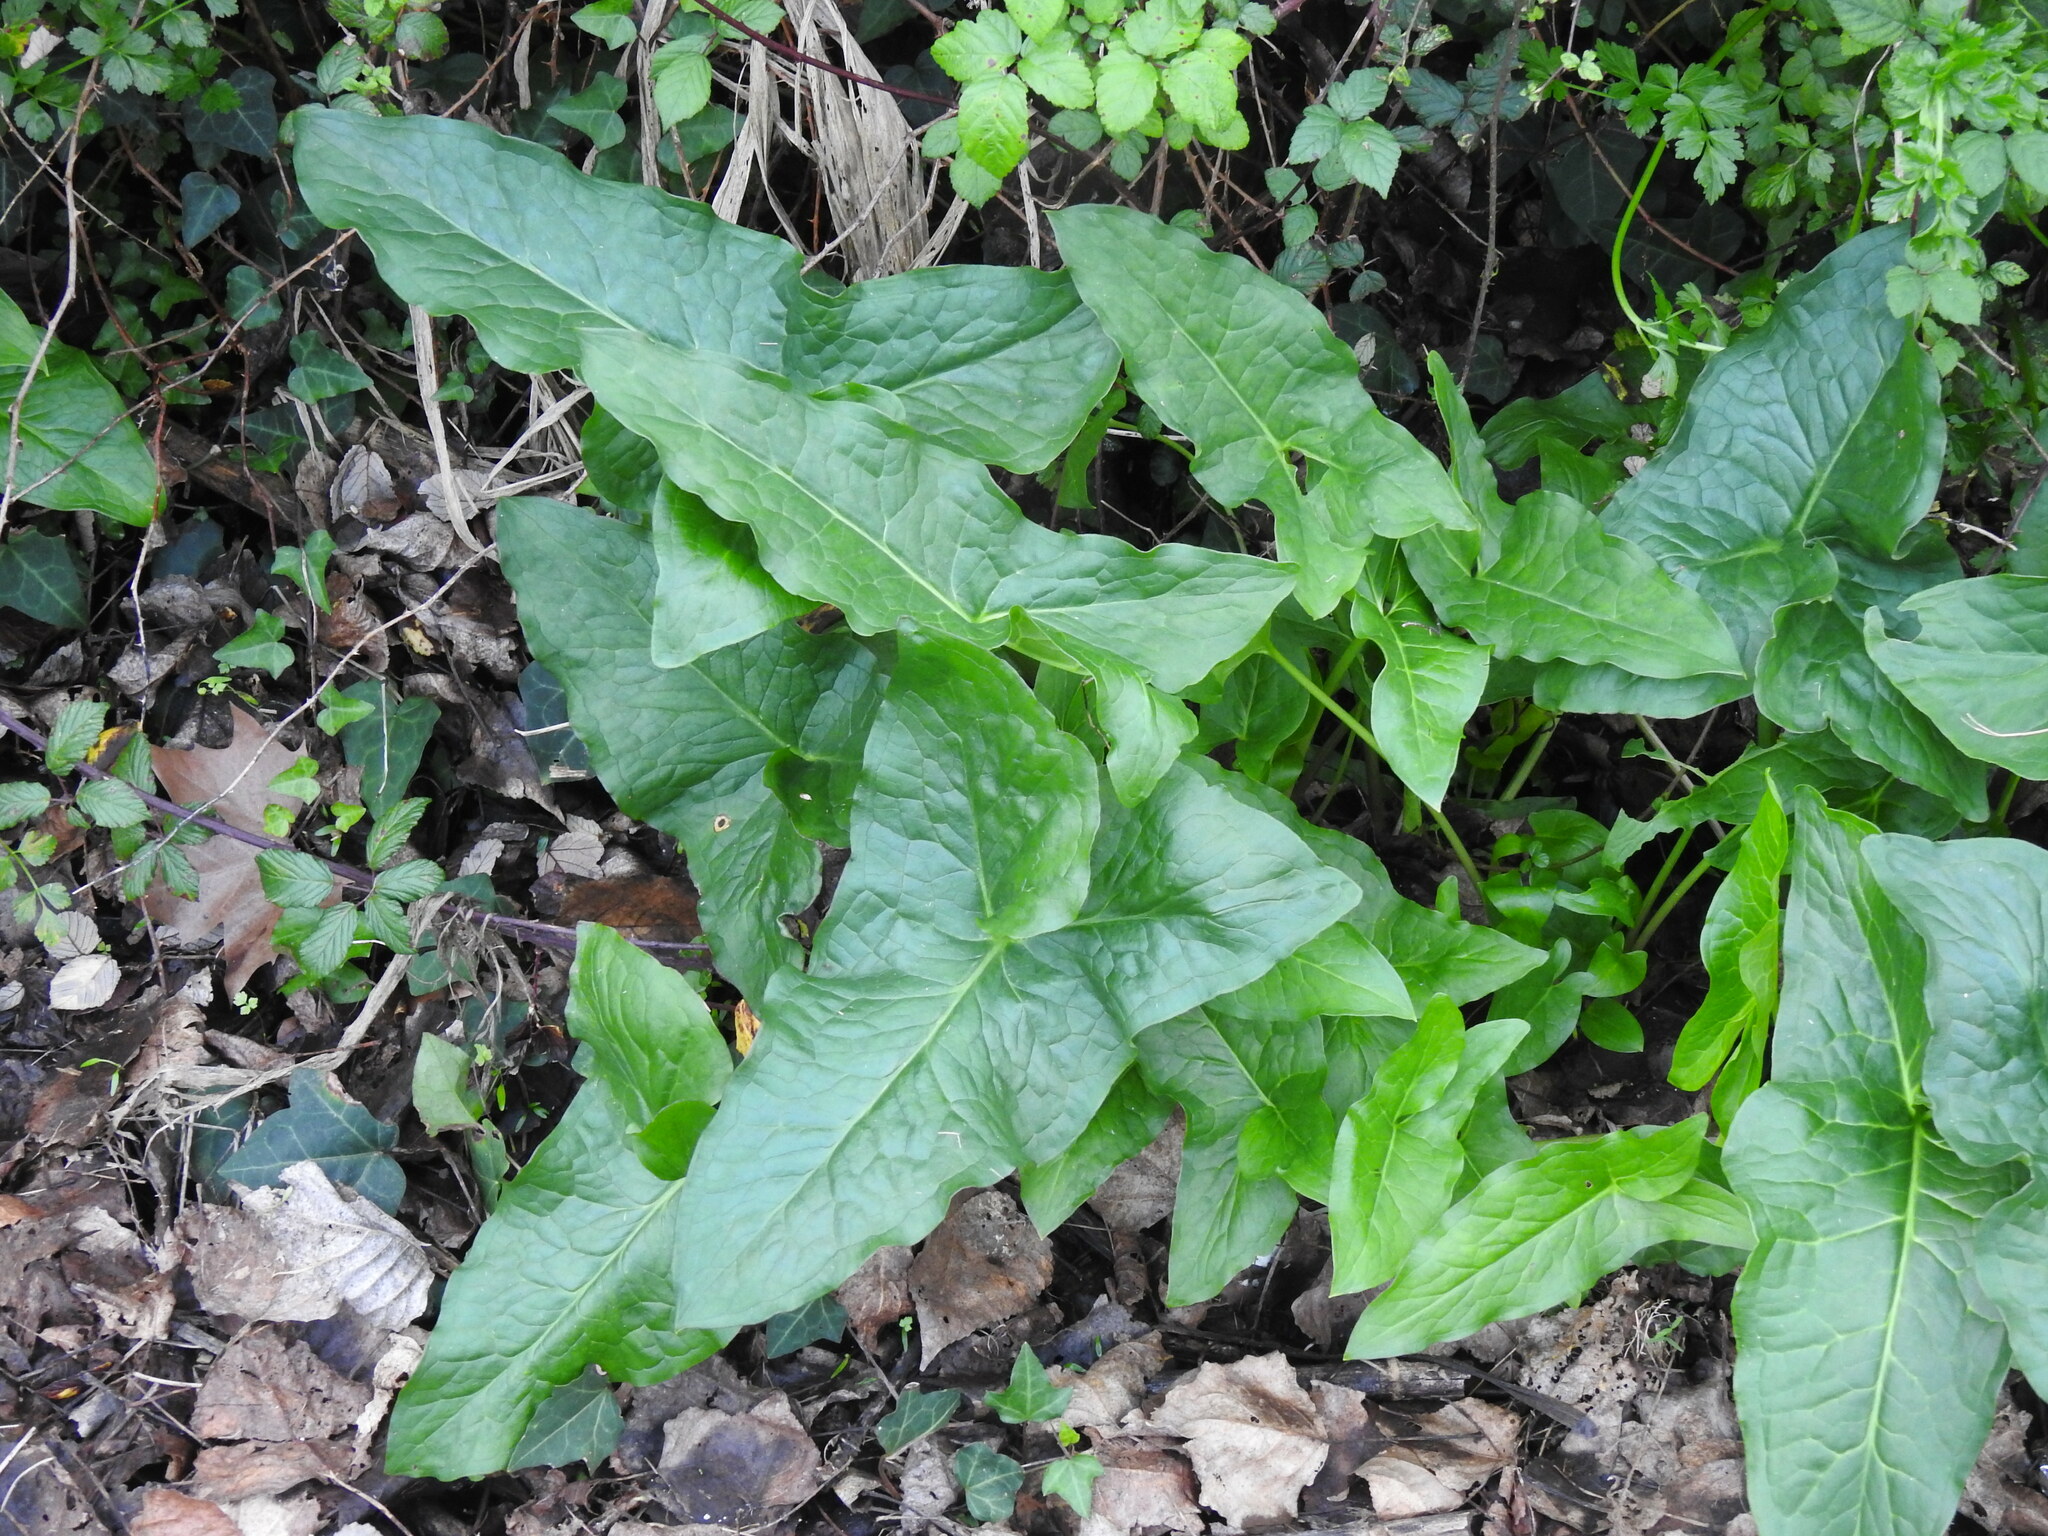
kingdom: Plantae
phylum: Tracheophyta
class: Liliopsida
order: Alismatales
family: Araceae
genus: Arum
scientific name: Arum italicum
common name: Italian lords-and-ladies
